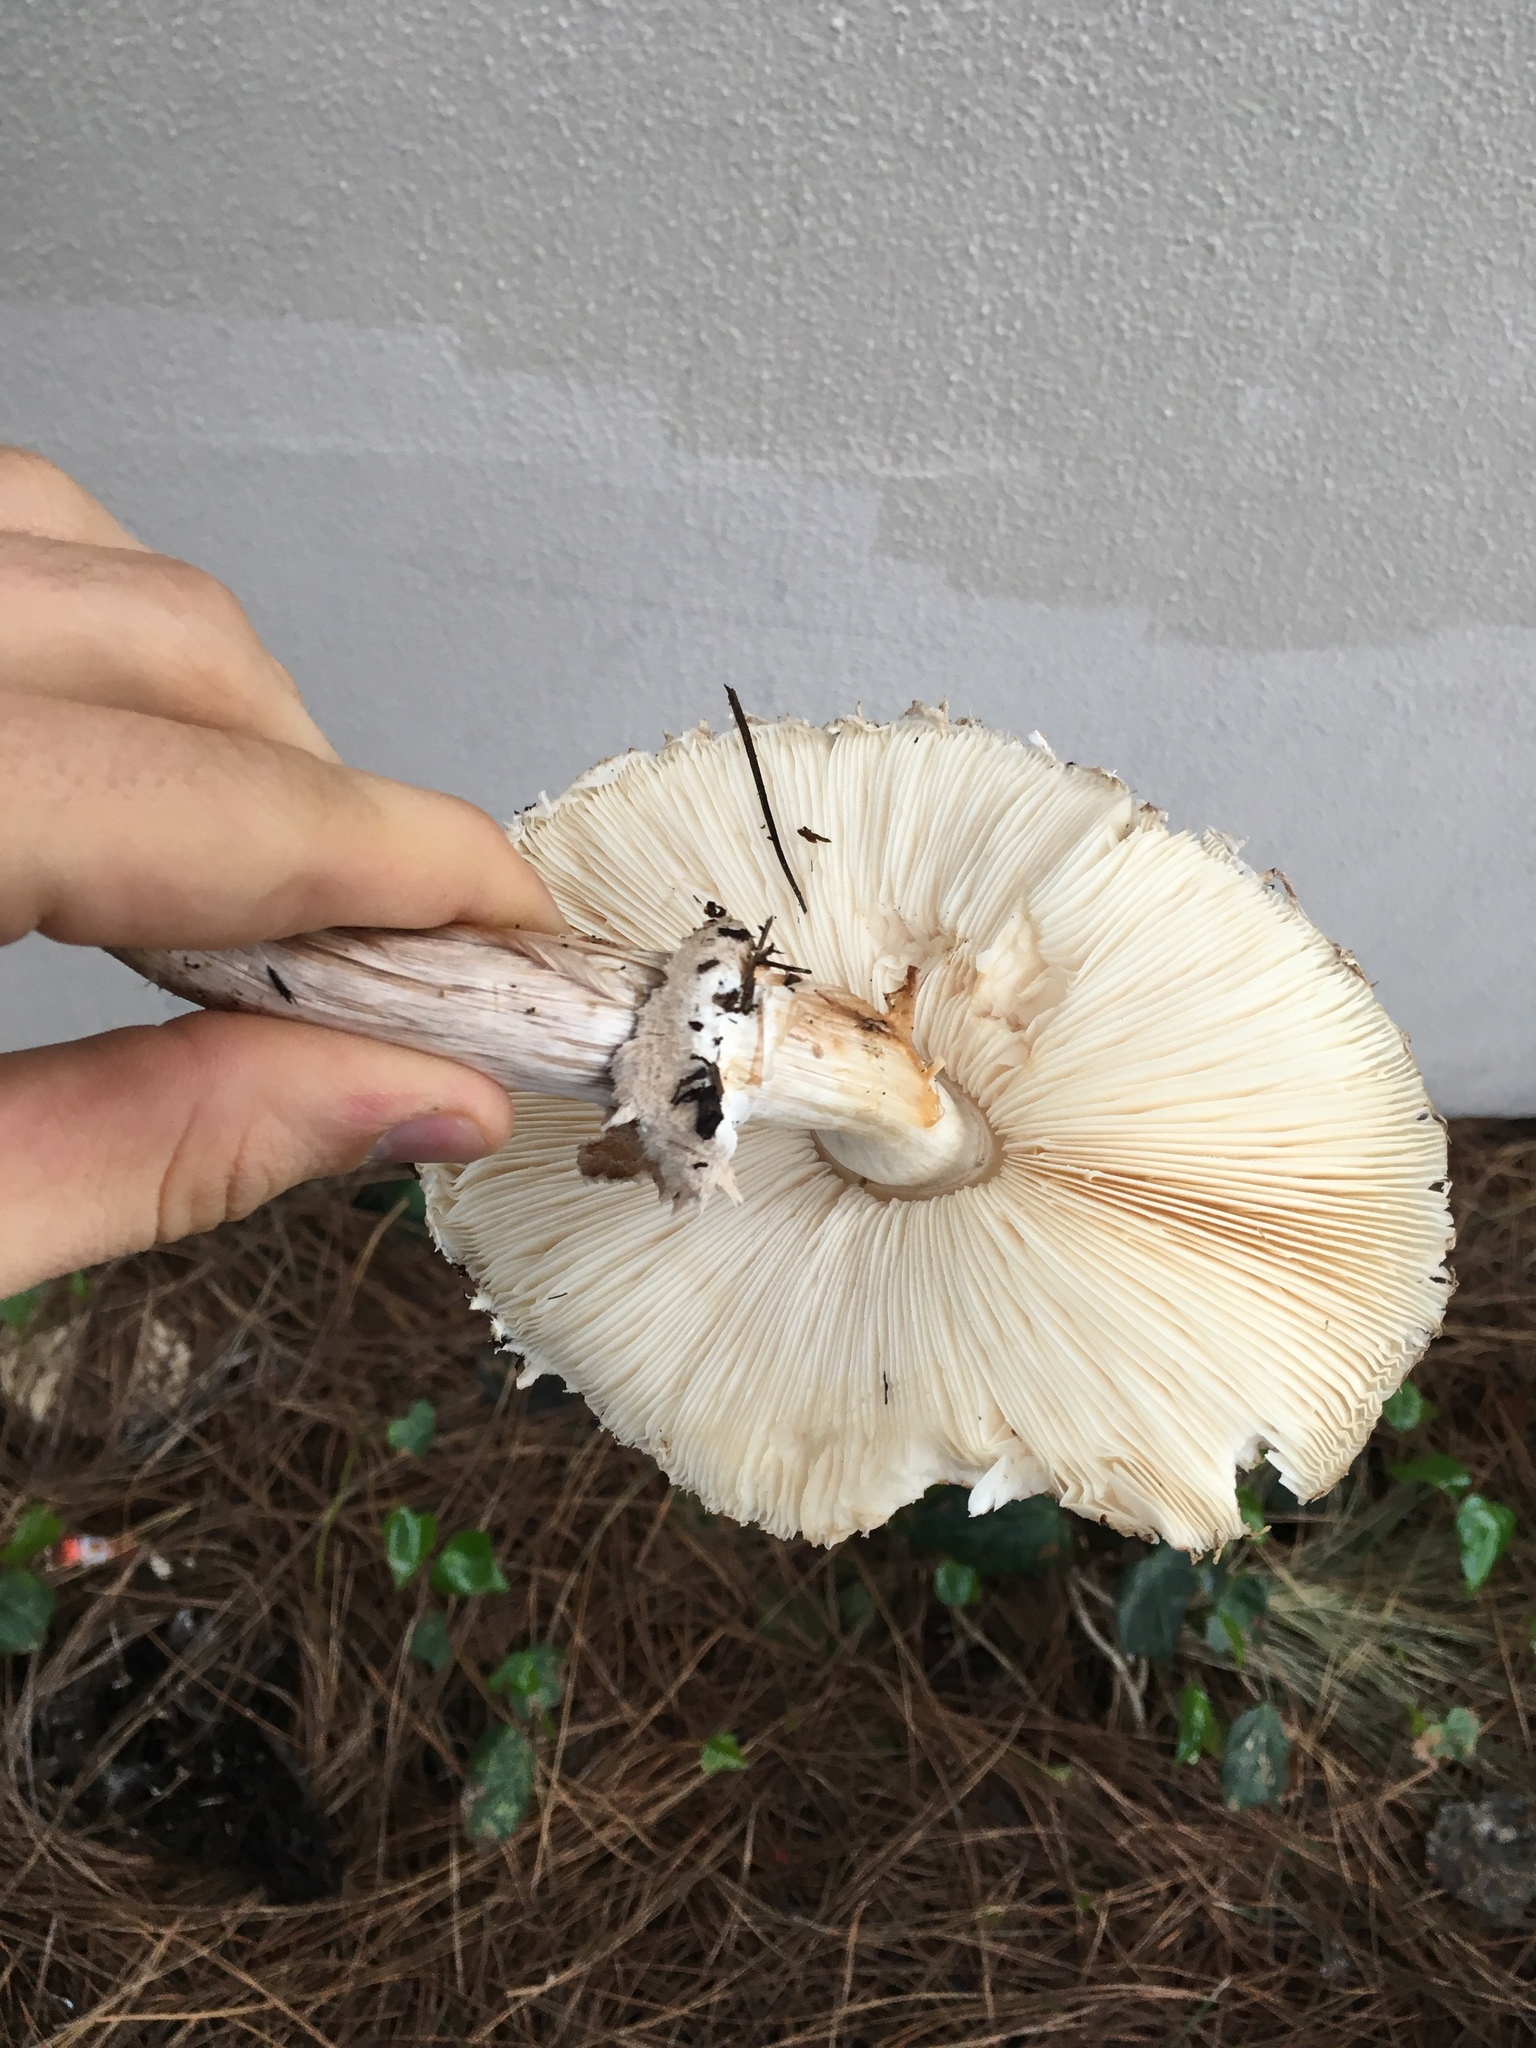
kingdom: Fungi
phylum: Basidiomycota
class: Agaricomycetes
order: Agaricales
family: Agaricaceae
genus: Chlorophyllum
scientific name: Chlorophyllum brunneum
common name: Brown parasol
